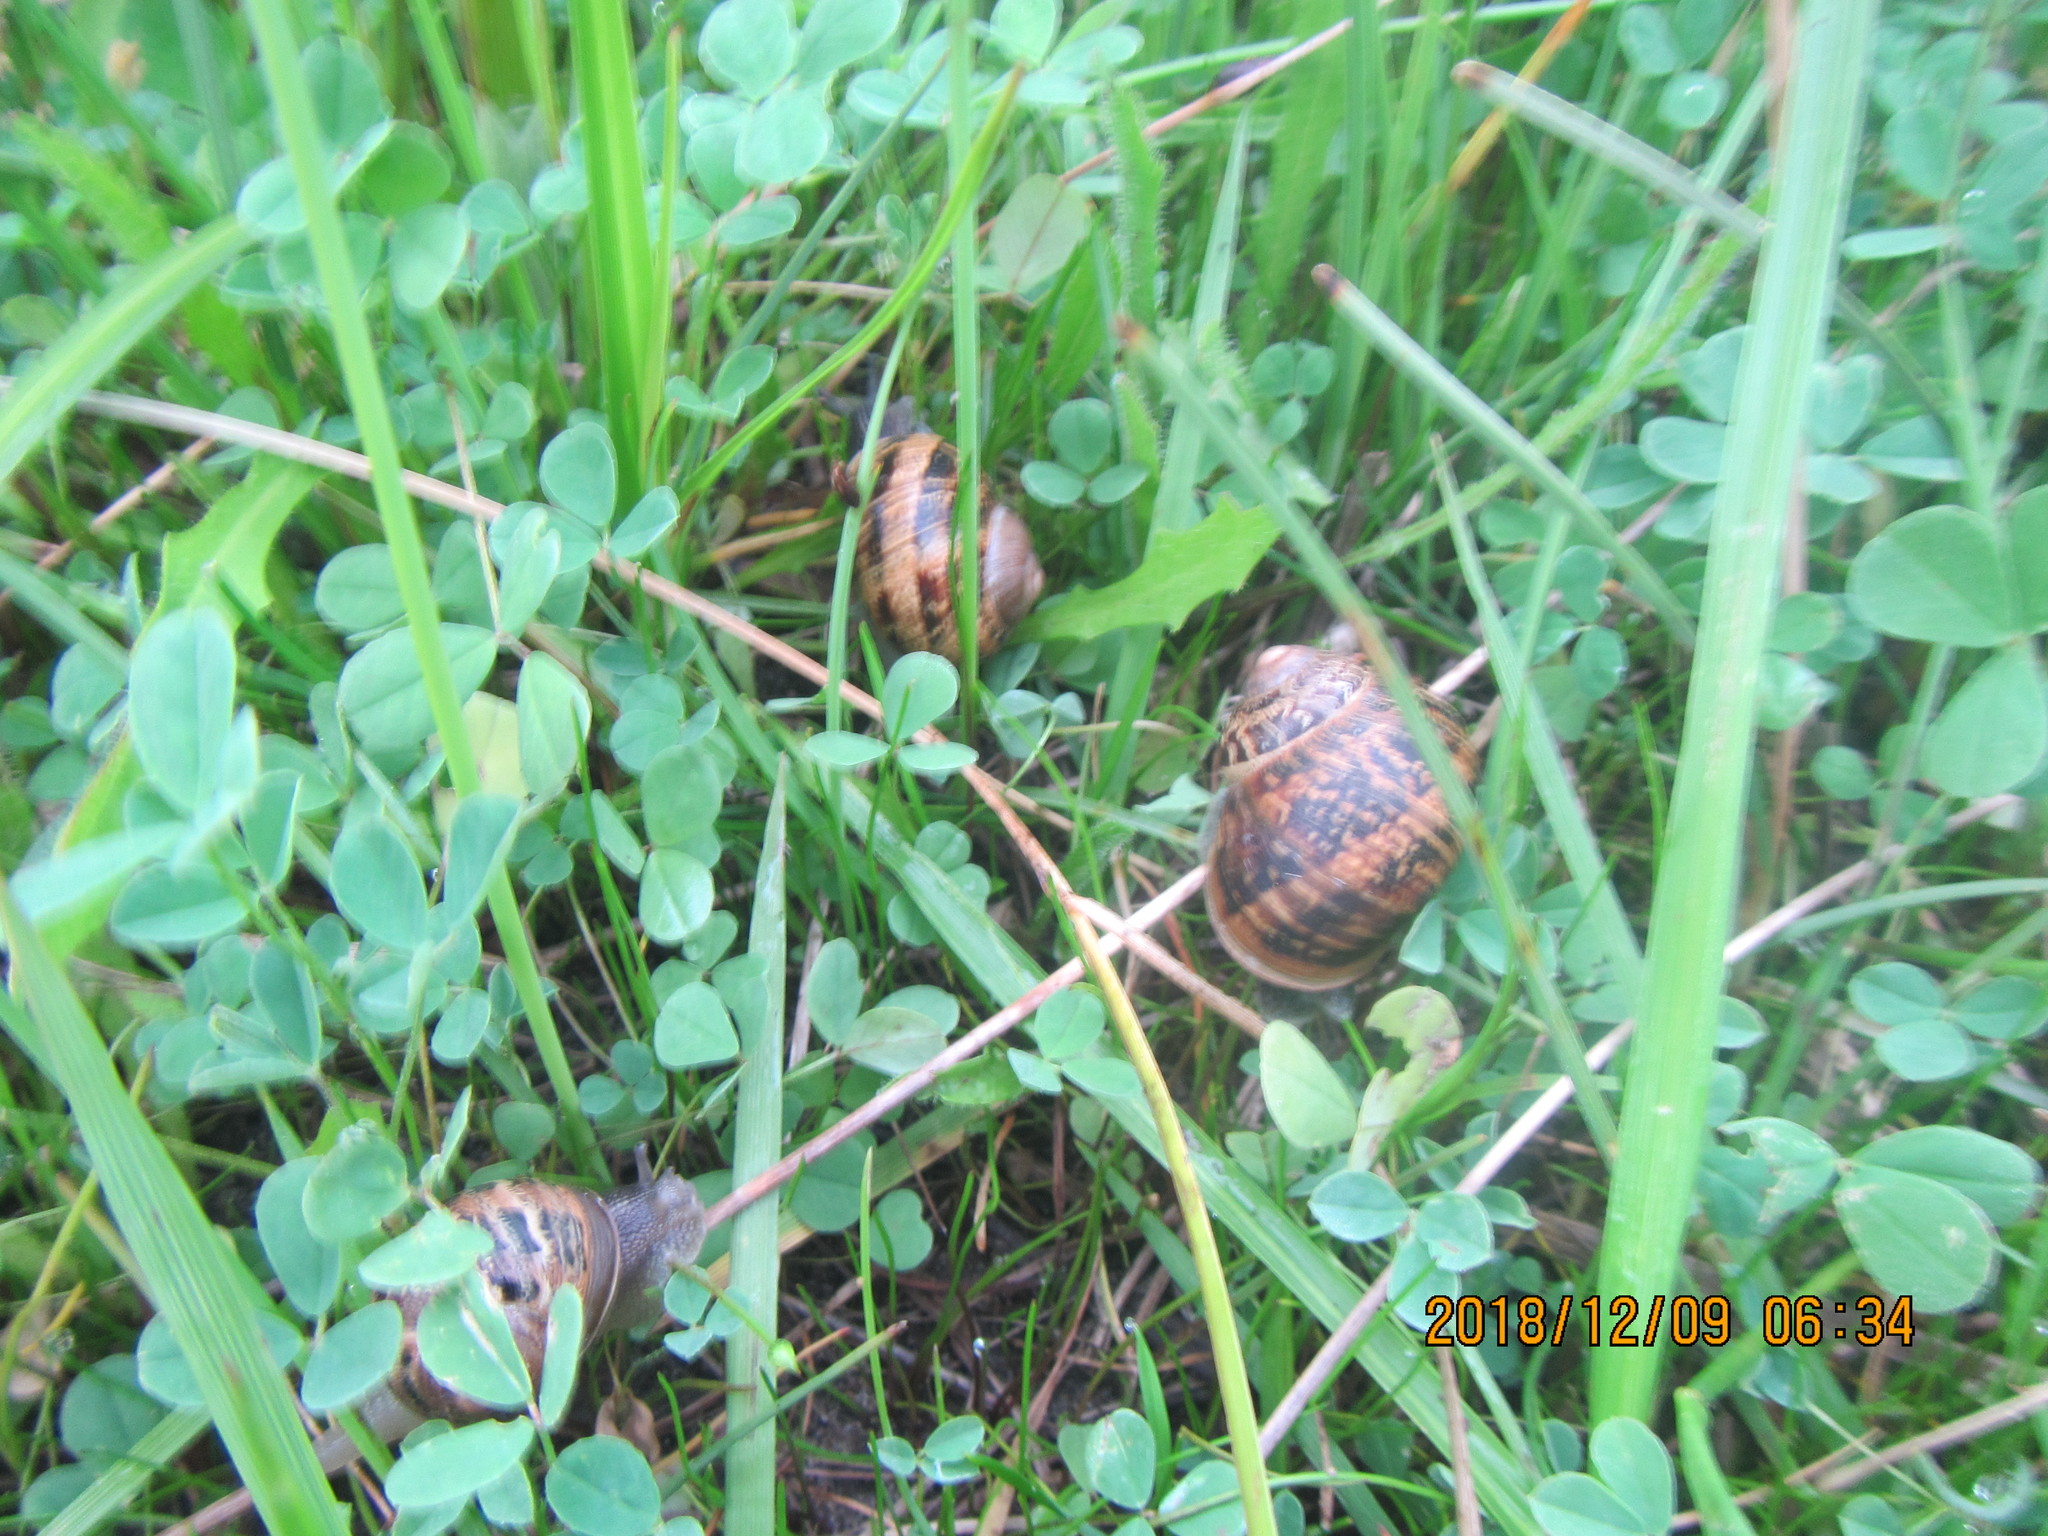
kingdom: Animalia
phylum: Mollusca
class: Gastropoda
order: Stylommatophora
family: Helicidae
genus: Cornu
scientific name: Cornu aspersum
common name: Brown garden snail
